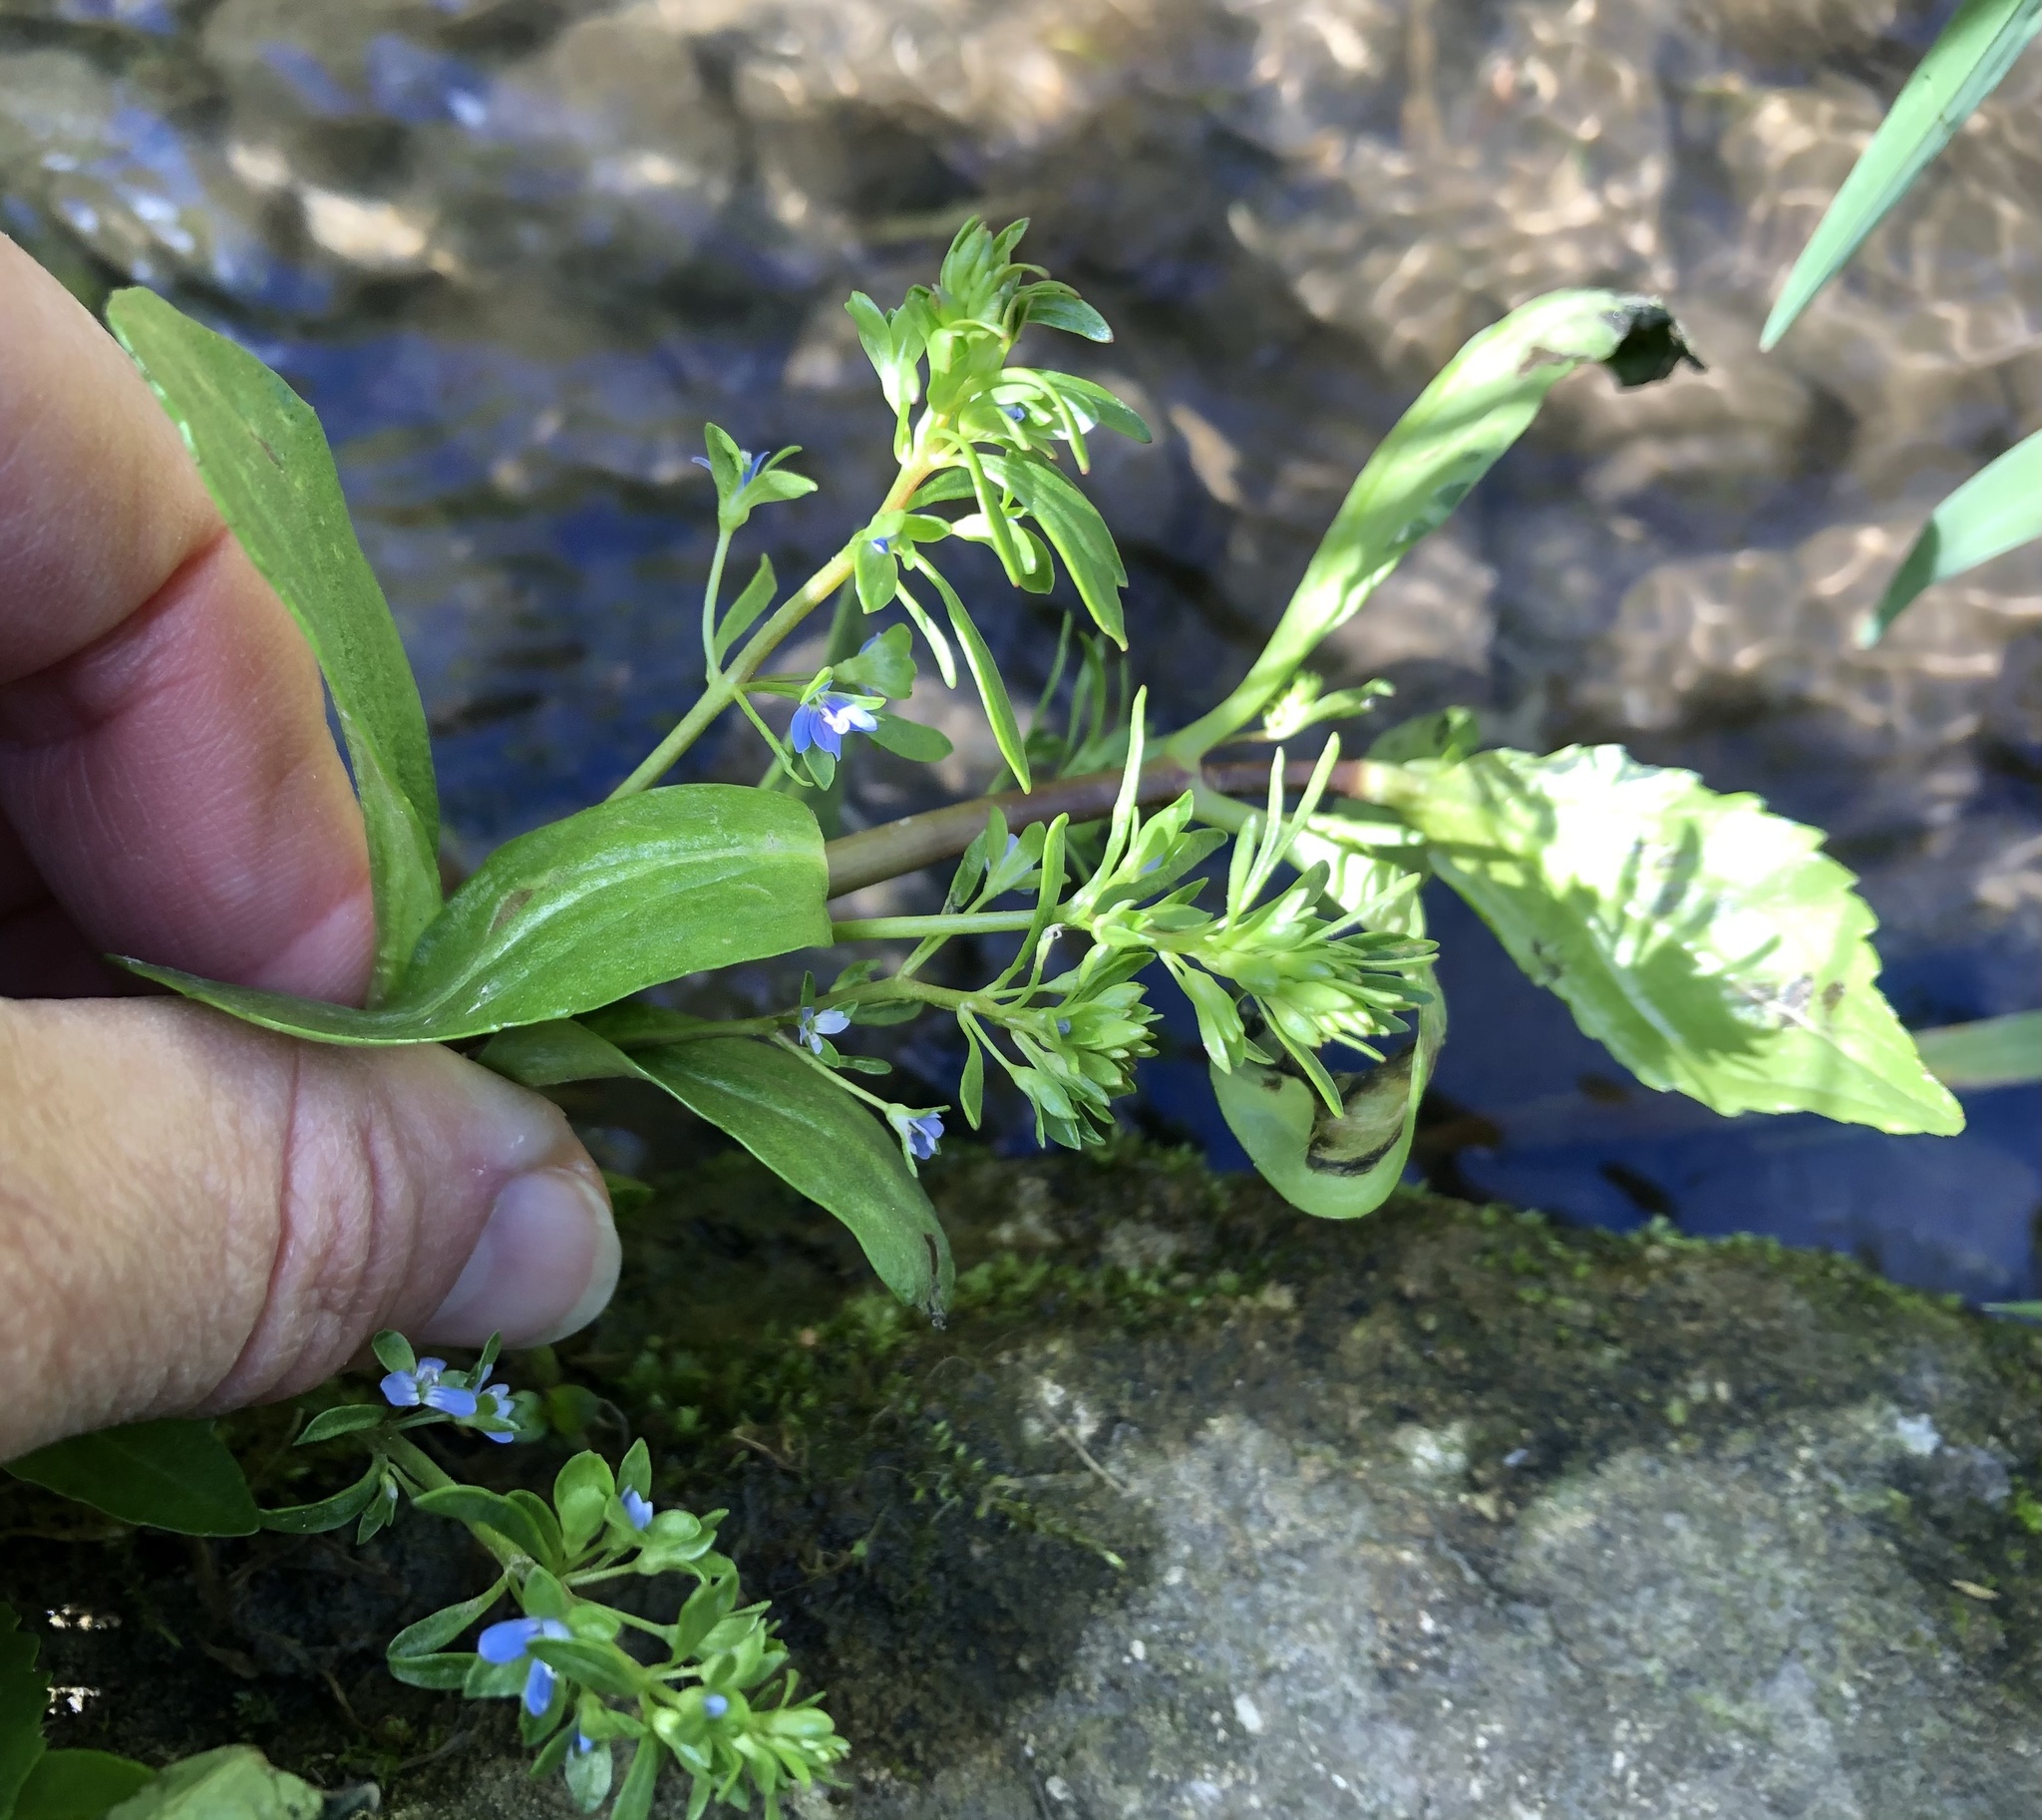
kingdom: Plantae
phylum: Tracheophyta
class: Magnoliopsida
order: Lamiales
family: Plantaginaceae
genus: Veronica
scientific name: Veronica beccabunga
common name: Brooklime
